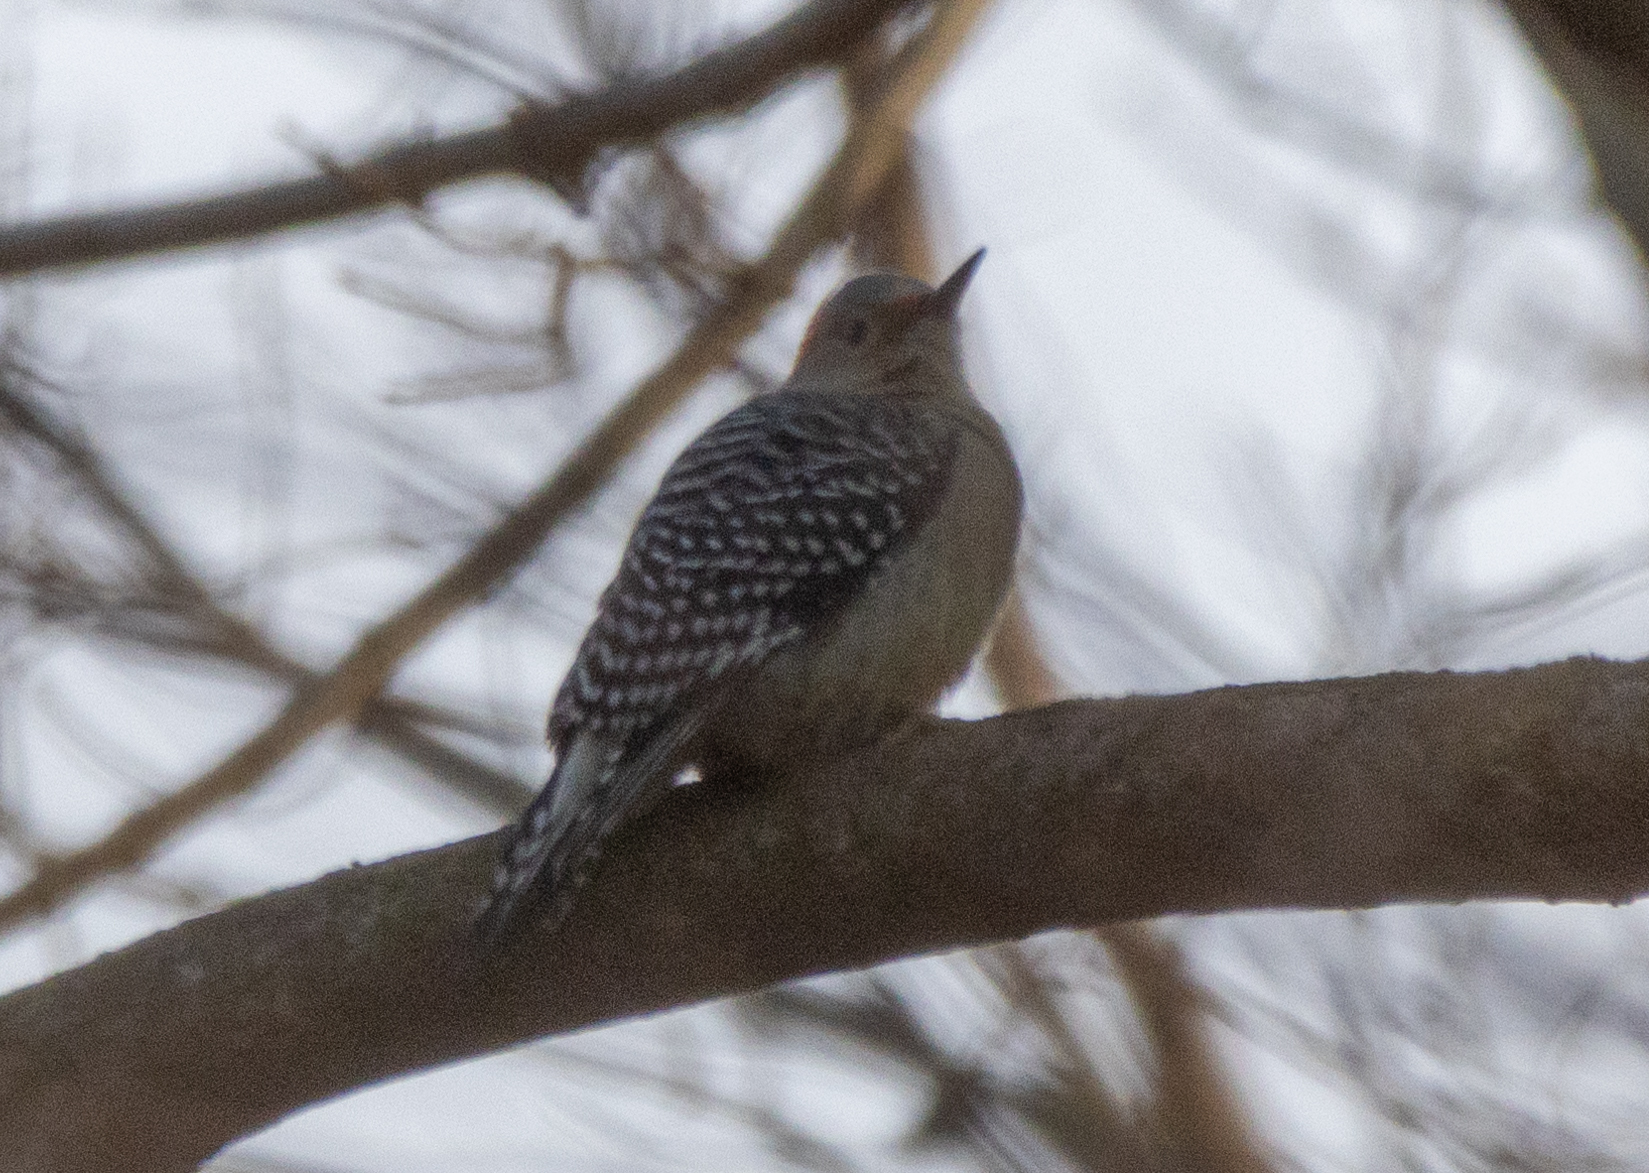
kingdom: Animalia
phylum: Chordata
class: Aves
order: Piciformes
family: Picidae
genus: Melanerpes
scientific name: Melanerpes carolinus
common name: Red-bellied woodpecker
